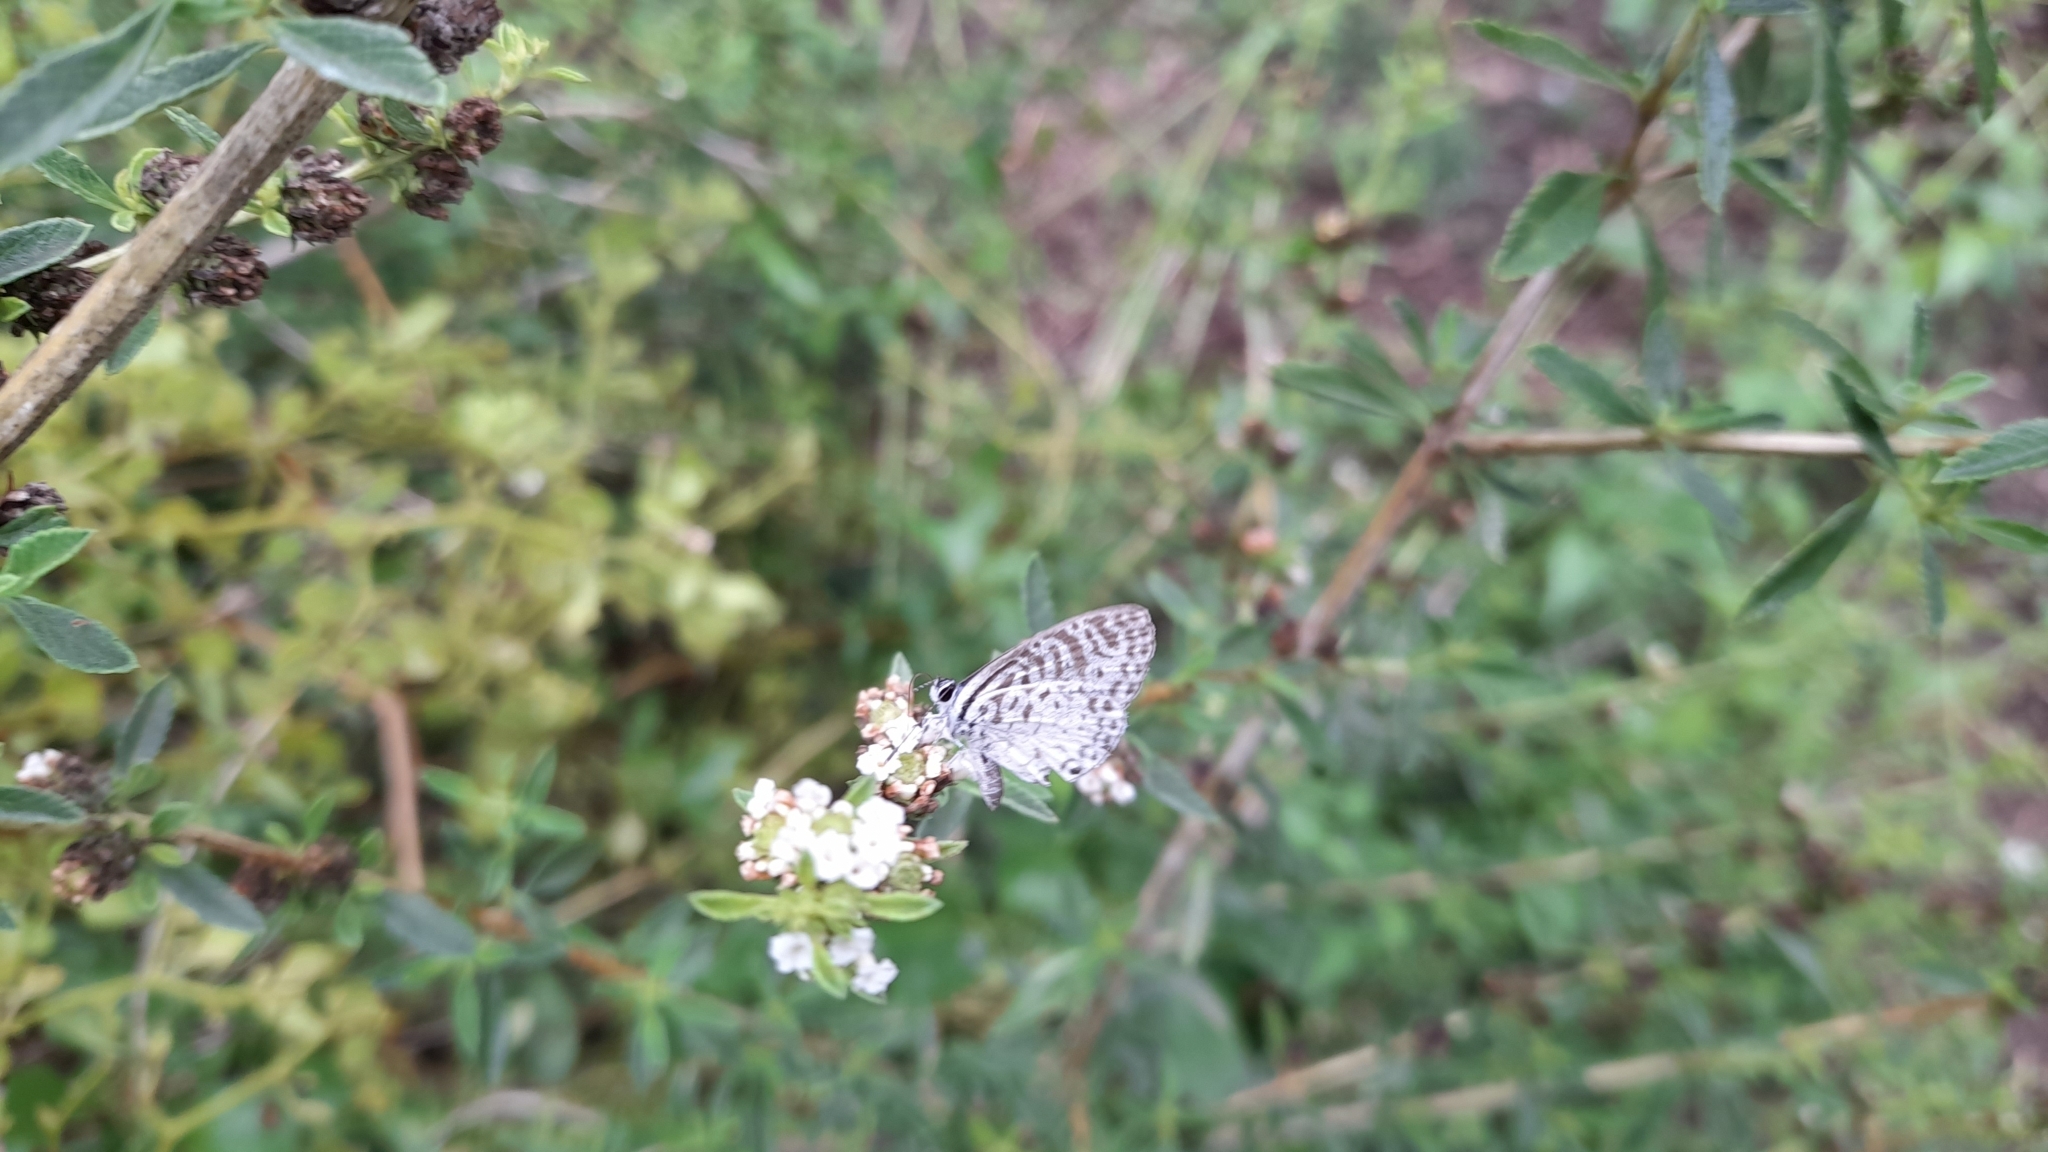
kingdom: Animalia
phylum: Arthropoda
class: Insecta
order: Lepidoptera
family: Lycaenidae
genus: Leptotes
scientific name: Leptotes cassius
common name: Cassius blue
